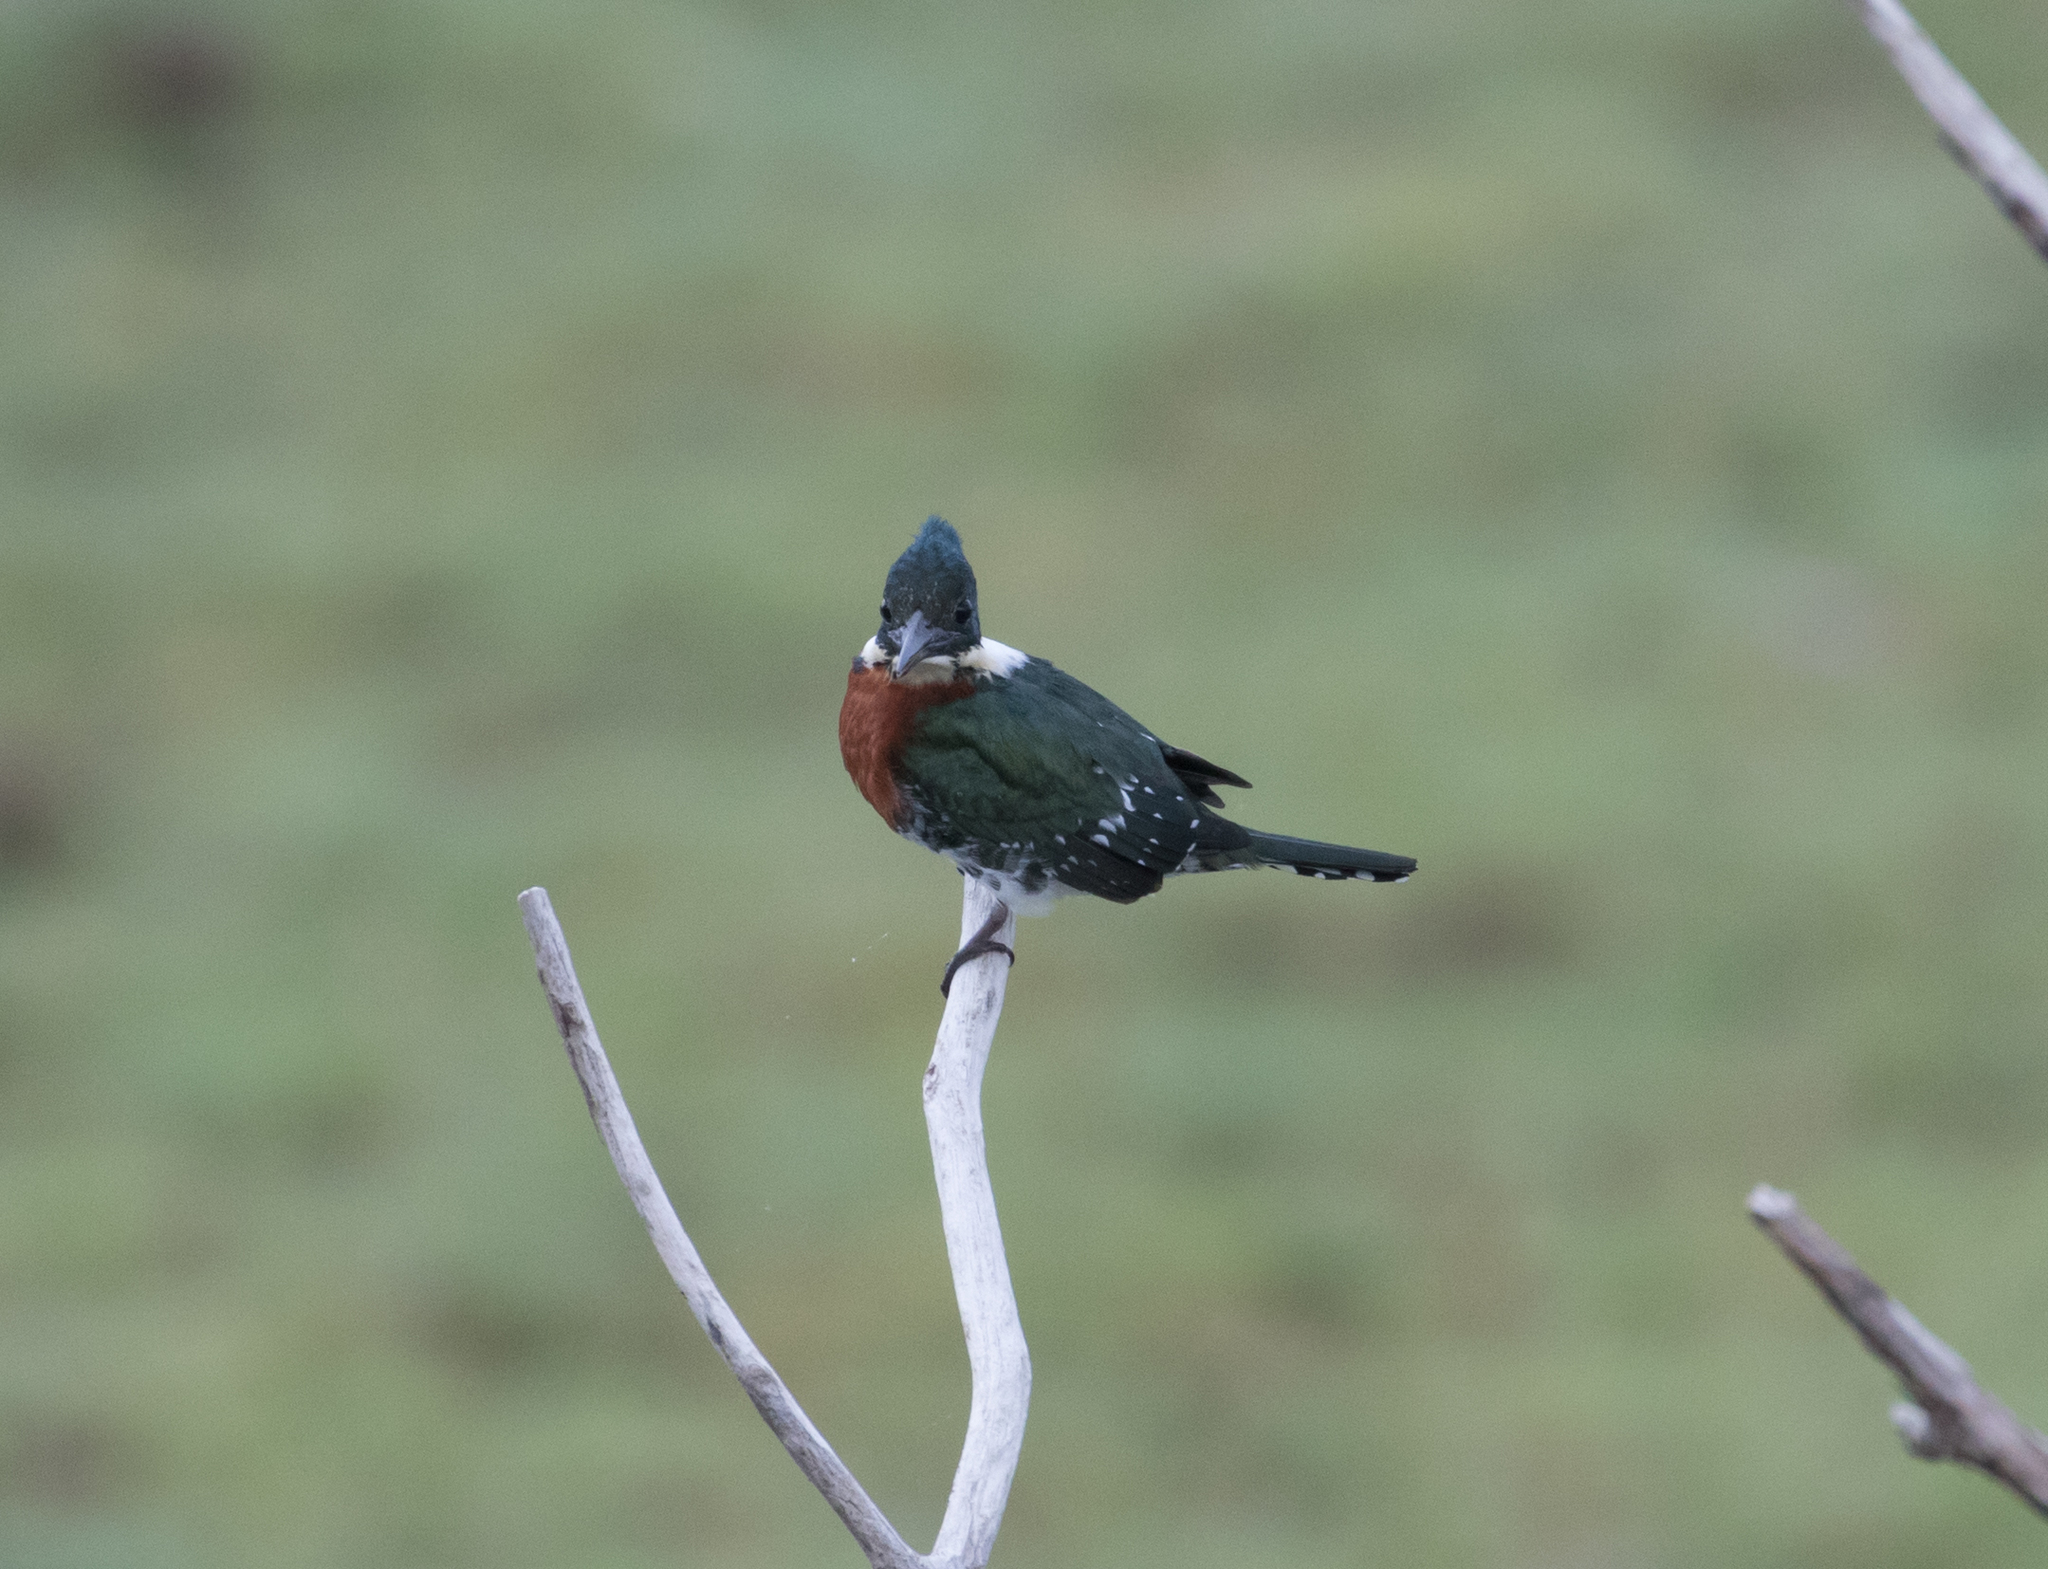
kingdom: Animalia
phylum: Chordata
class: Aves
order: Coraciiformes
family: Alcedinidae
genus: Chloroceryle
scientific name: Chloroceryle americana
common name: Green kingfisher
